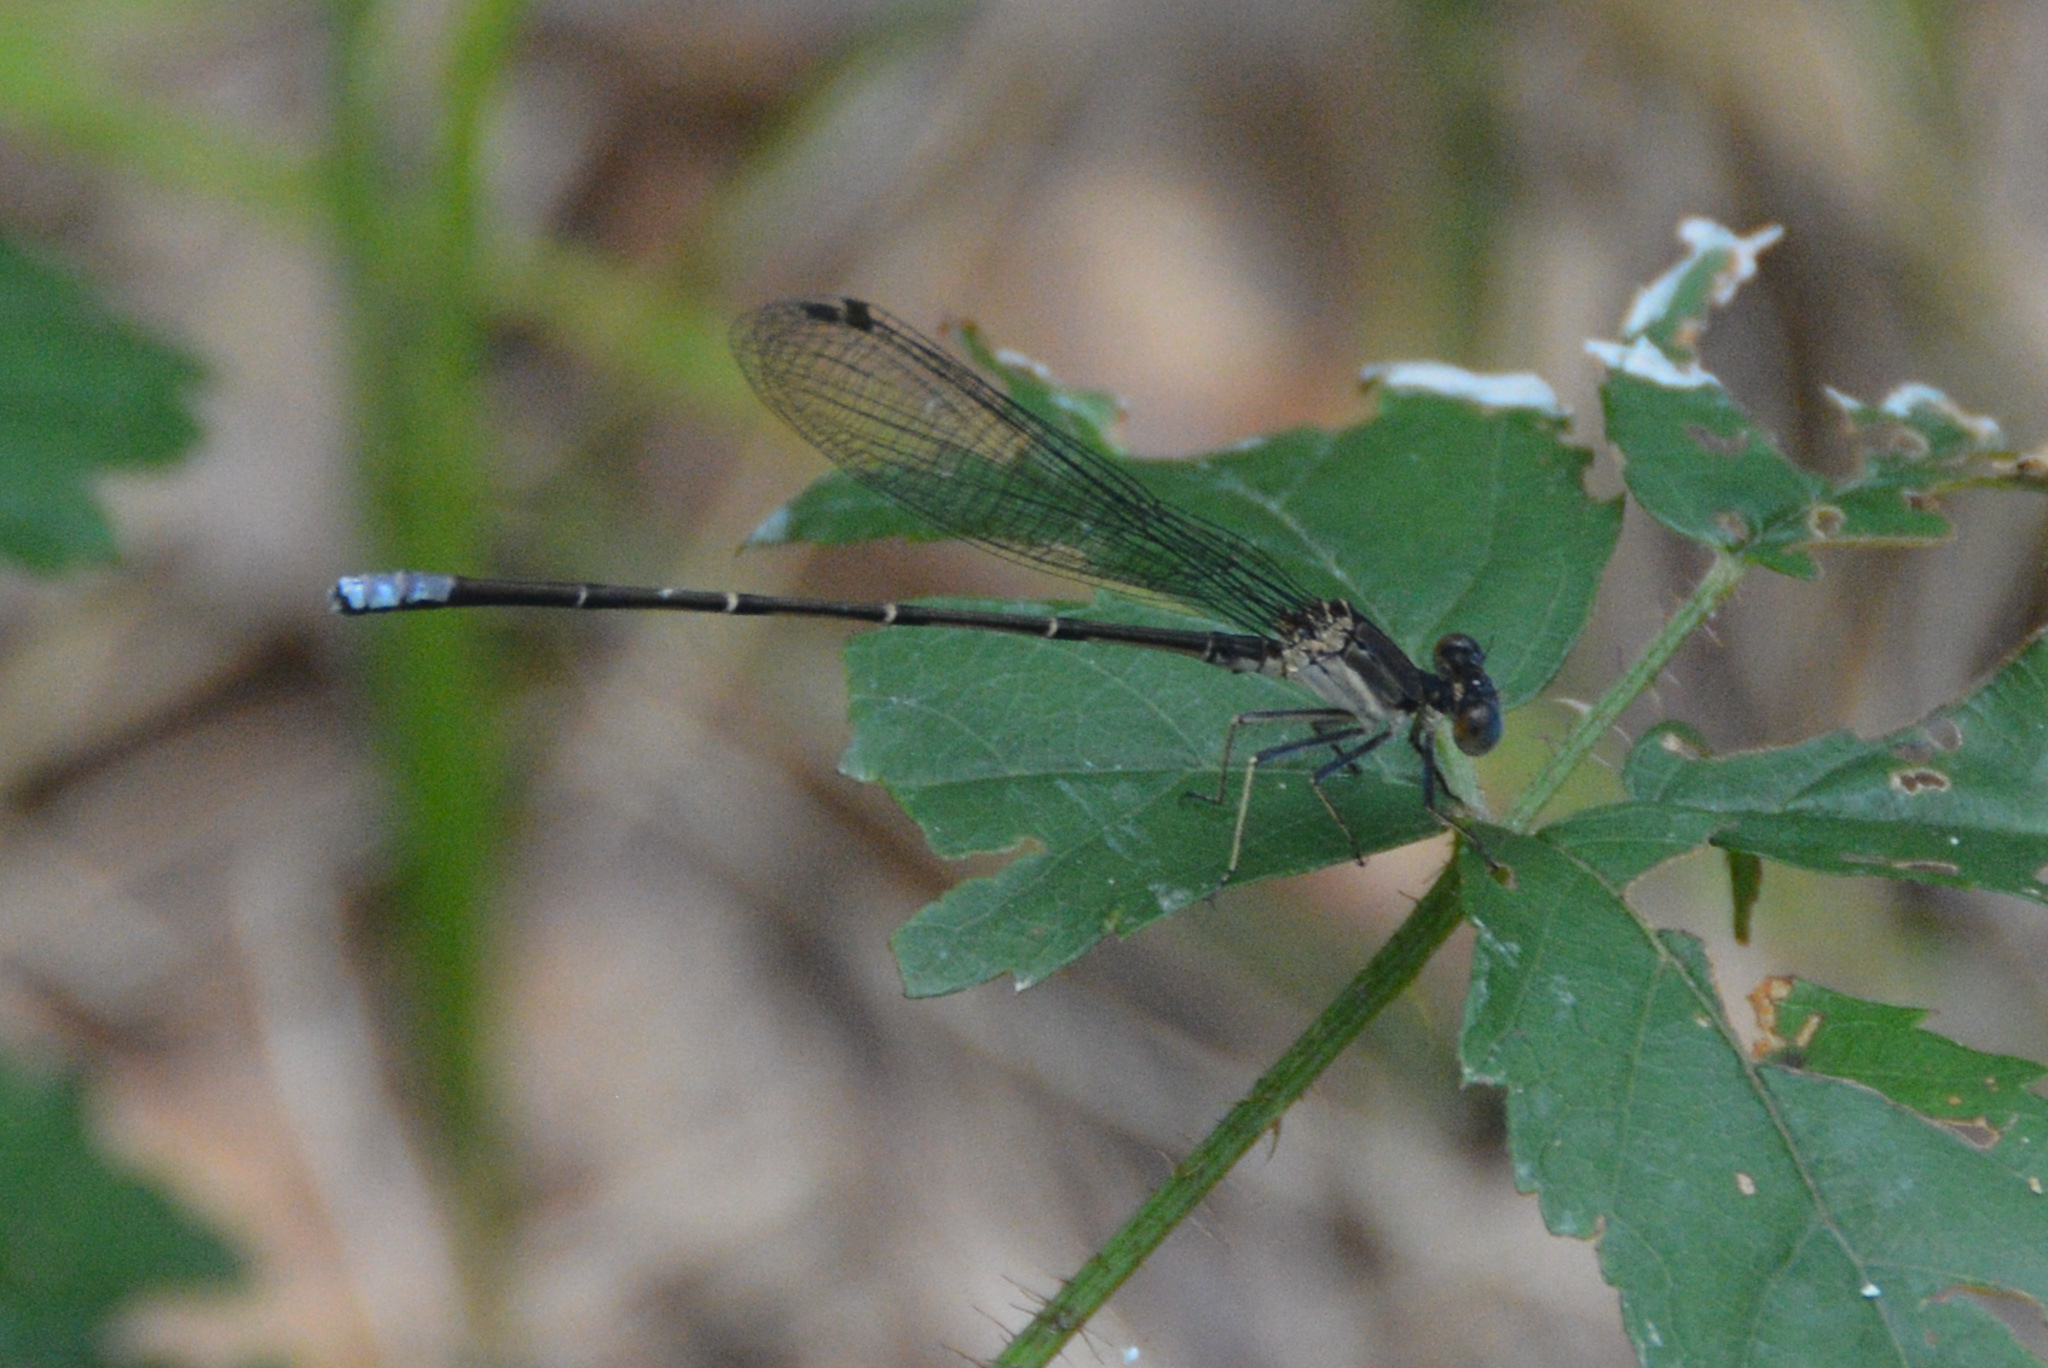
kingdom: Animalia
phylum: Arthropoda
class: Insecta
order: Odonata
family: Coenagrionidae
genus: Argia
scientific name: Argia apicalis
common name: Blue-fronted dancer
